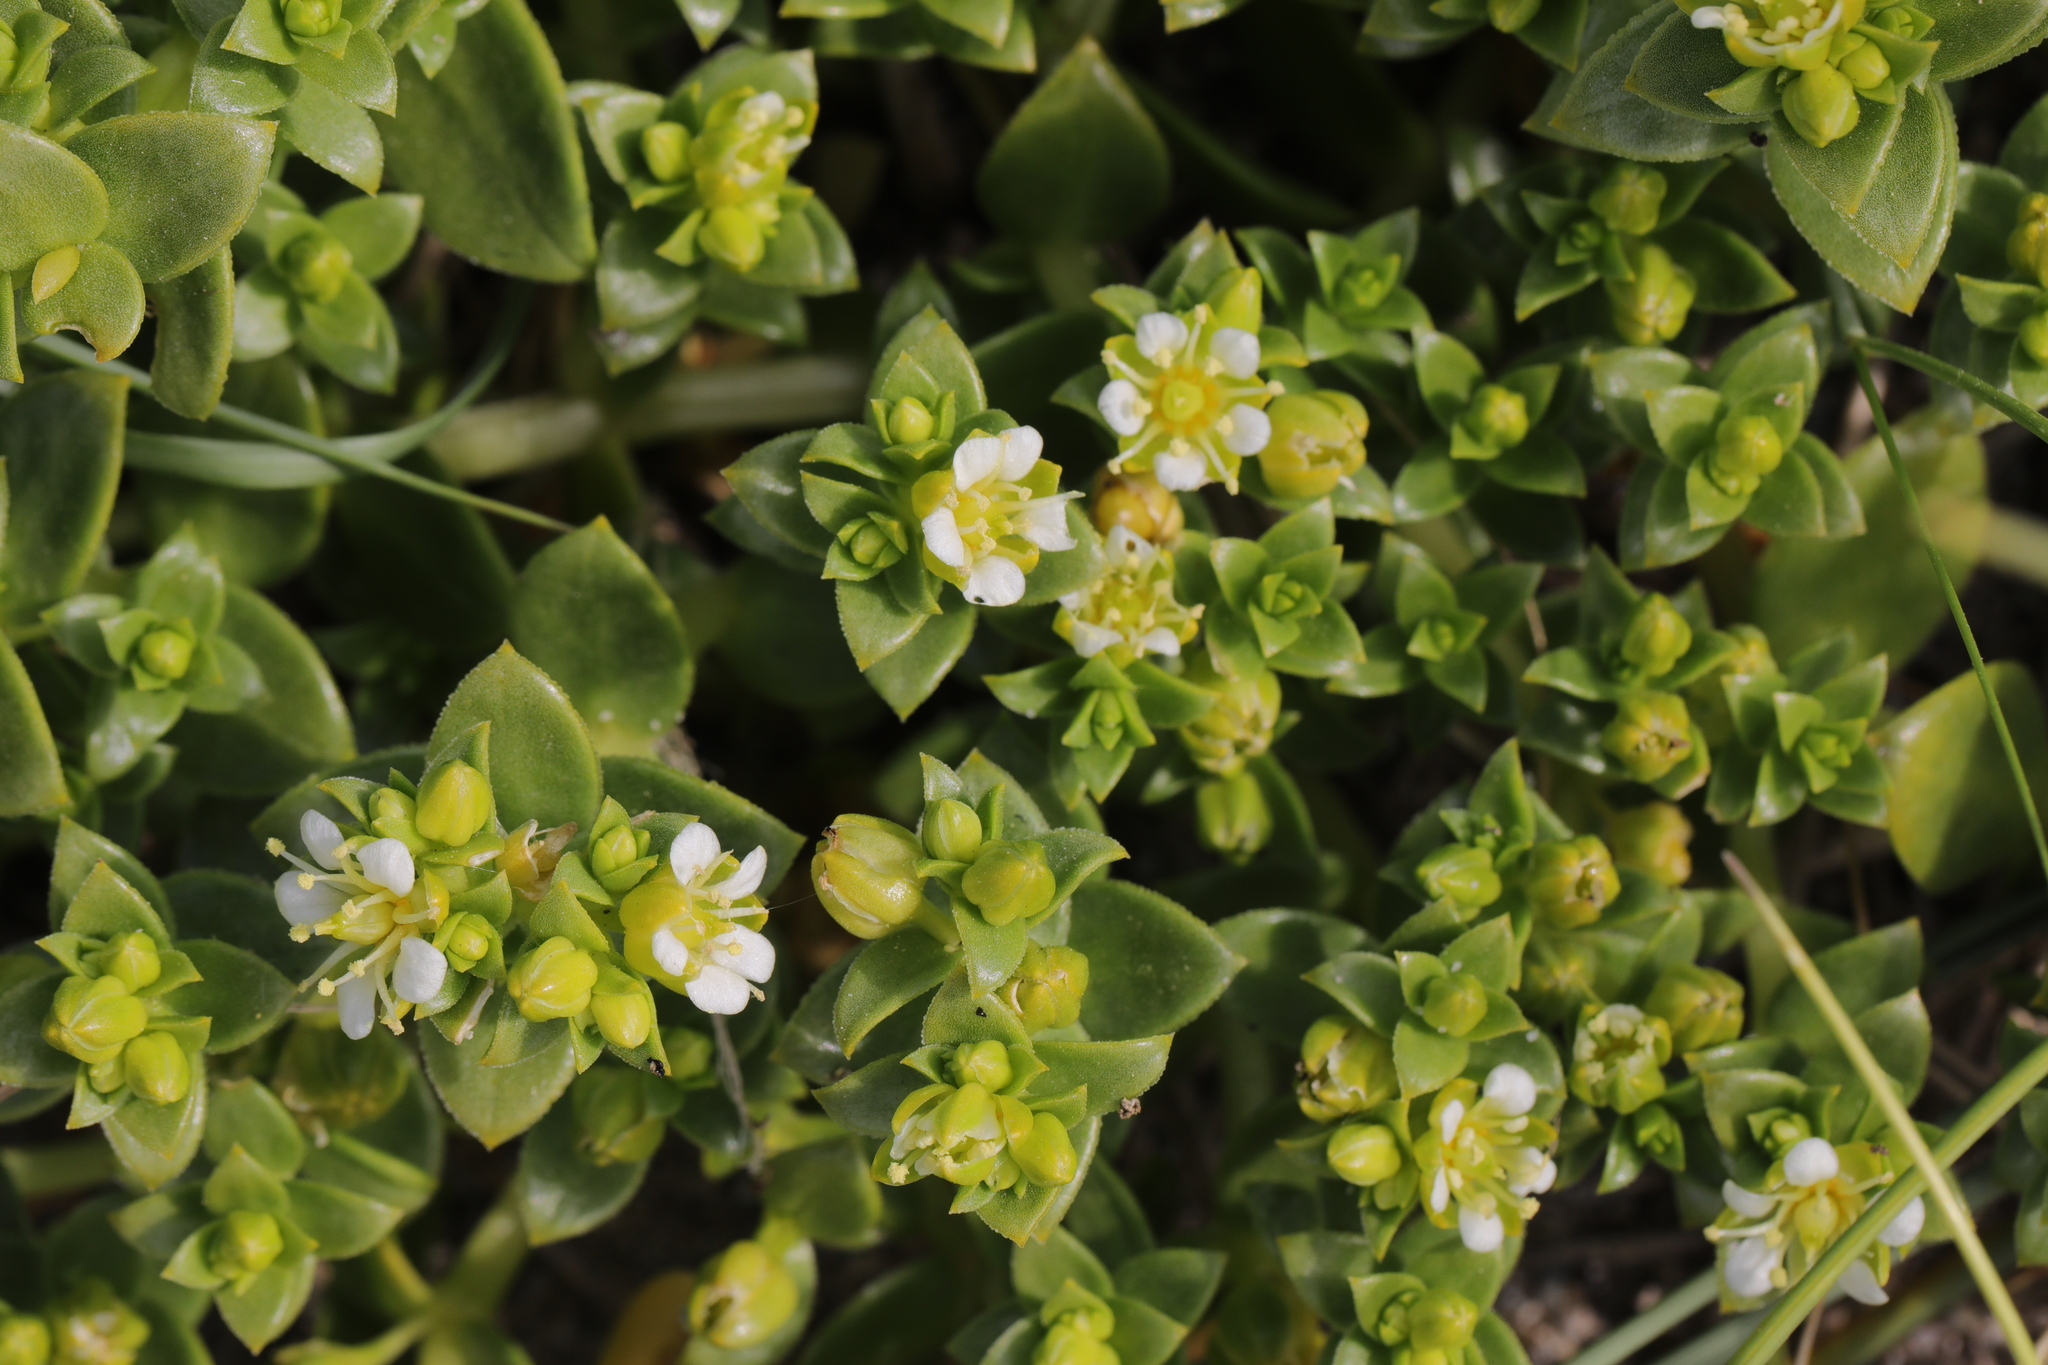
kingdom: Plantae
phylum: Tracheophyta
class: Magnoliopsida
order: Caryophyllales
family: Caryophyllaceae
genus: Honckenya
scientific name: Honckenya peploides
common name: Sea sandwort
